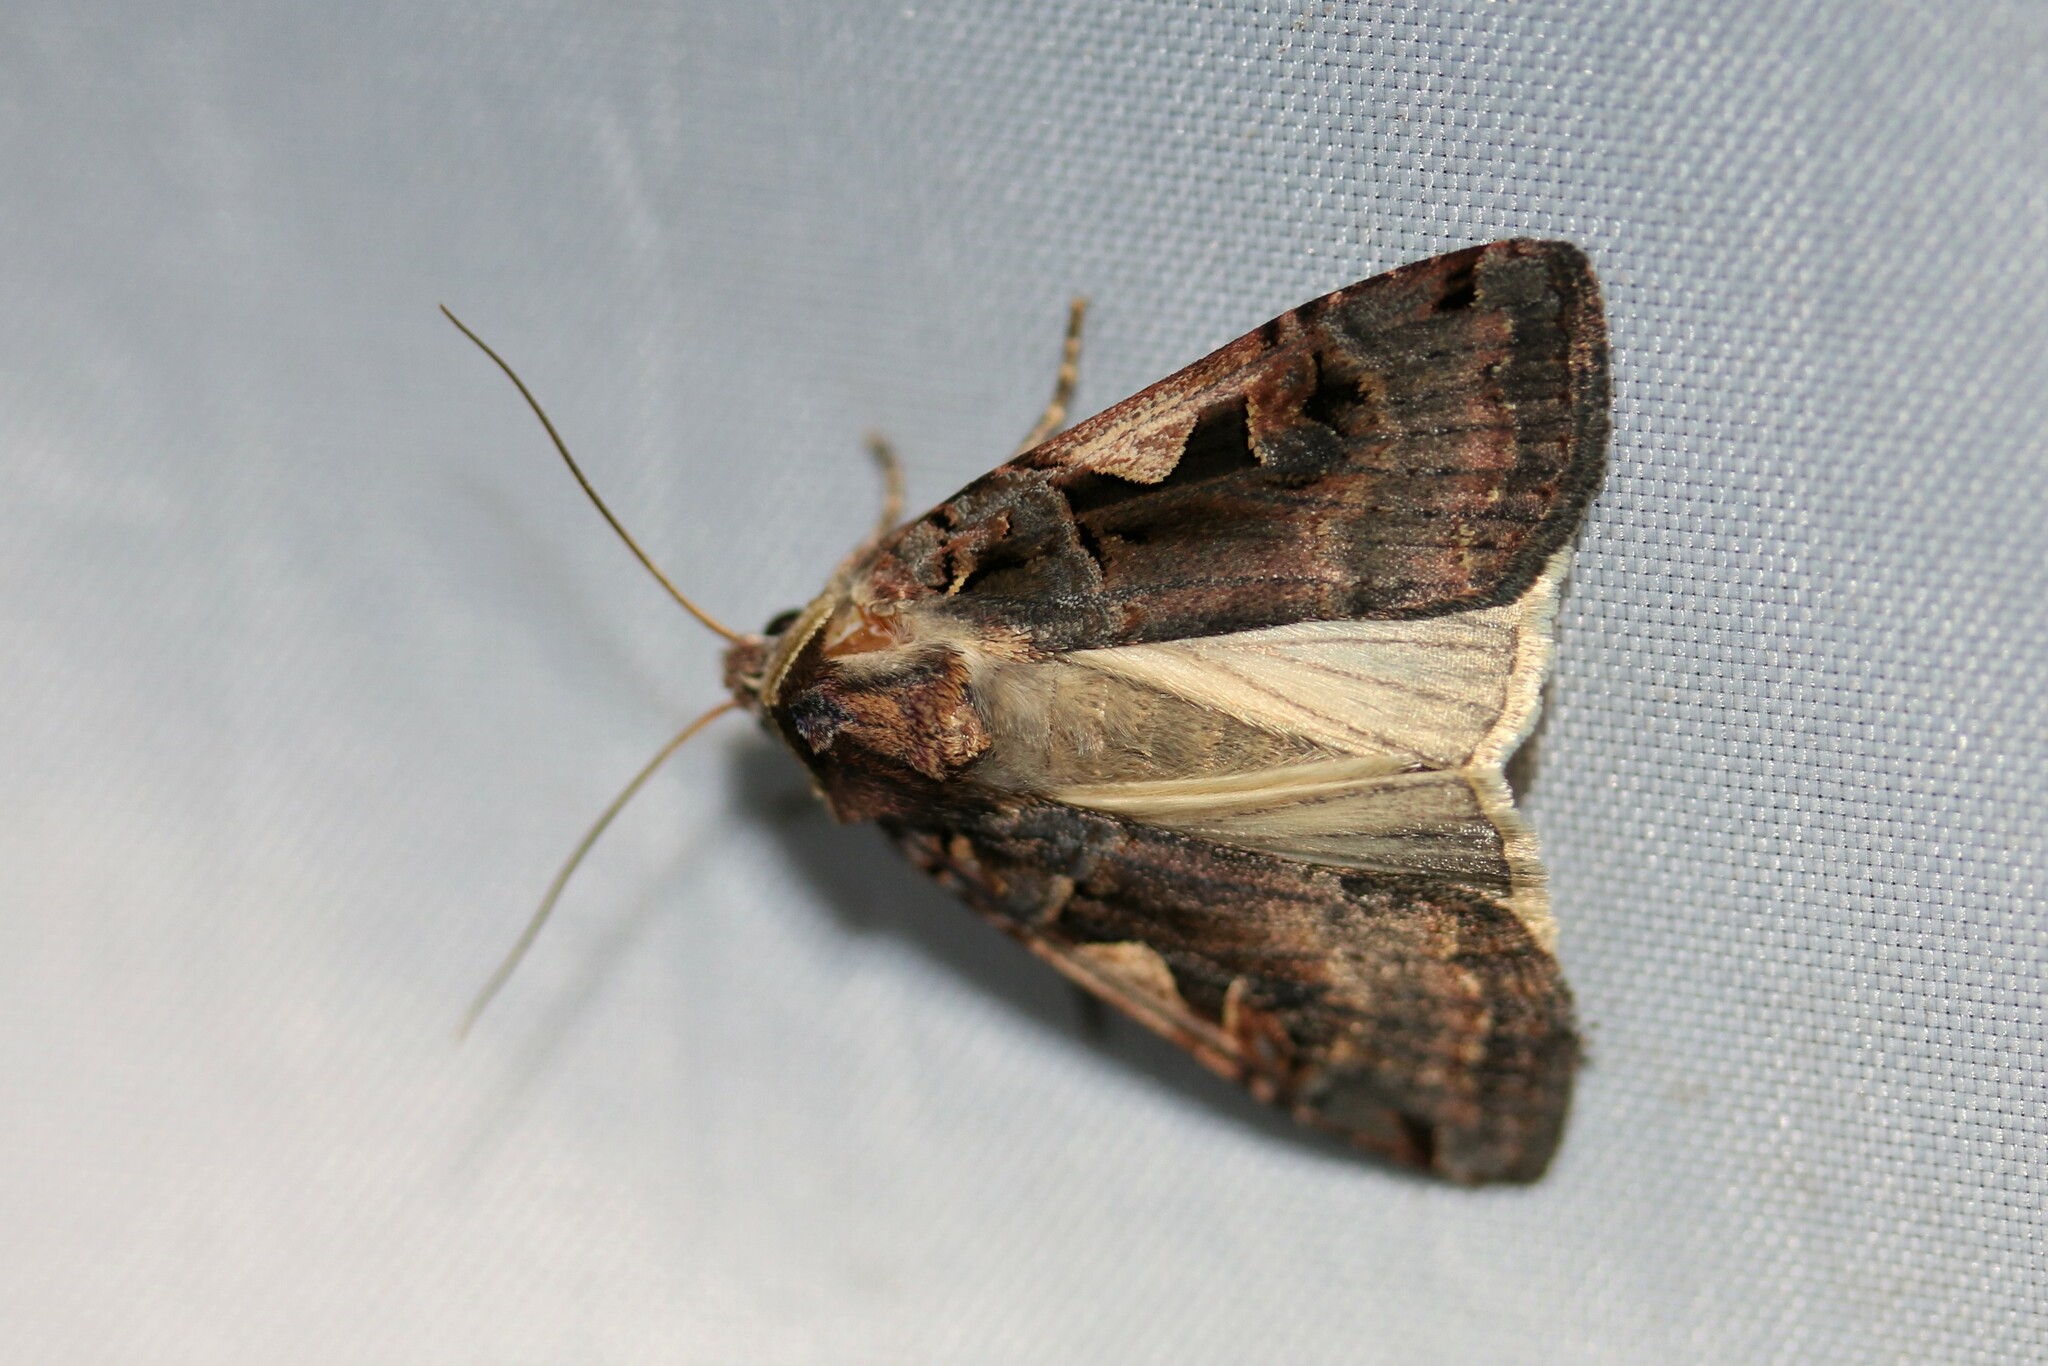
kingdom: Animalia
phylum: Arthropoda
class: Insecta
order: Lepidoptera
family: Noctuidae
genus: Xestia
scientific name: Xestia c-nigrum
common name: Setaceous hebrew character
